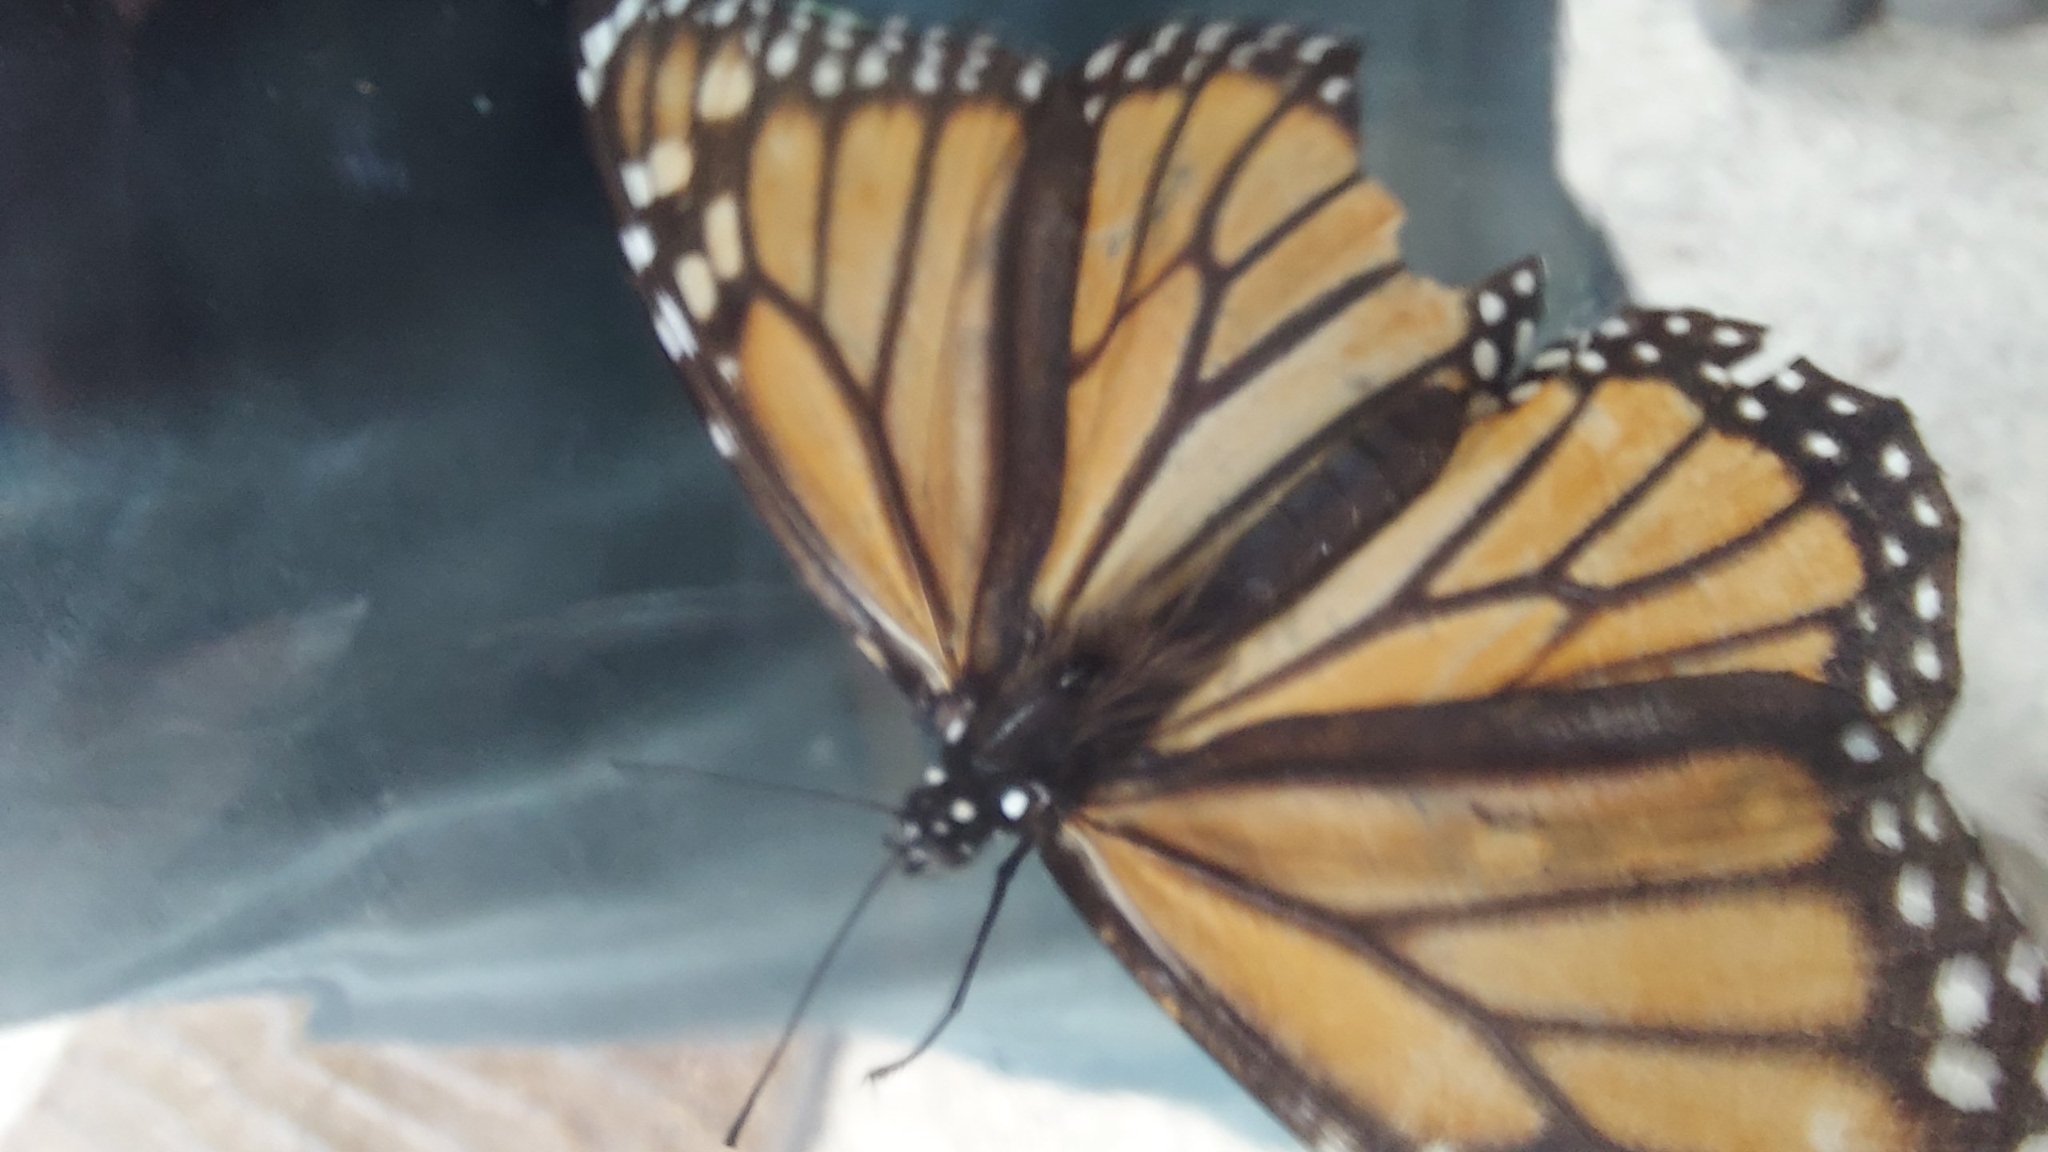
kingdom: Animalia
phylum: Arthropoda
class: Insecta
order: Lepidoptera
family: Nymphalidae
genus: Danaus
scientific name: Danaus plexippus
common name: Monarch
